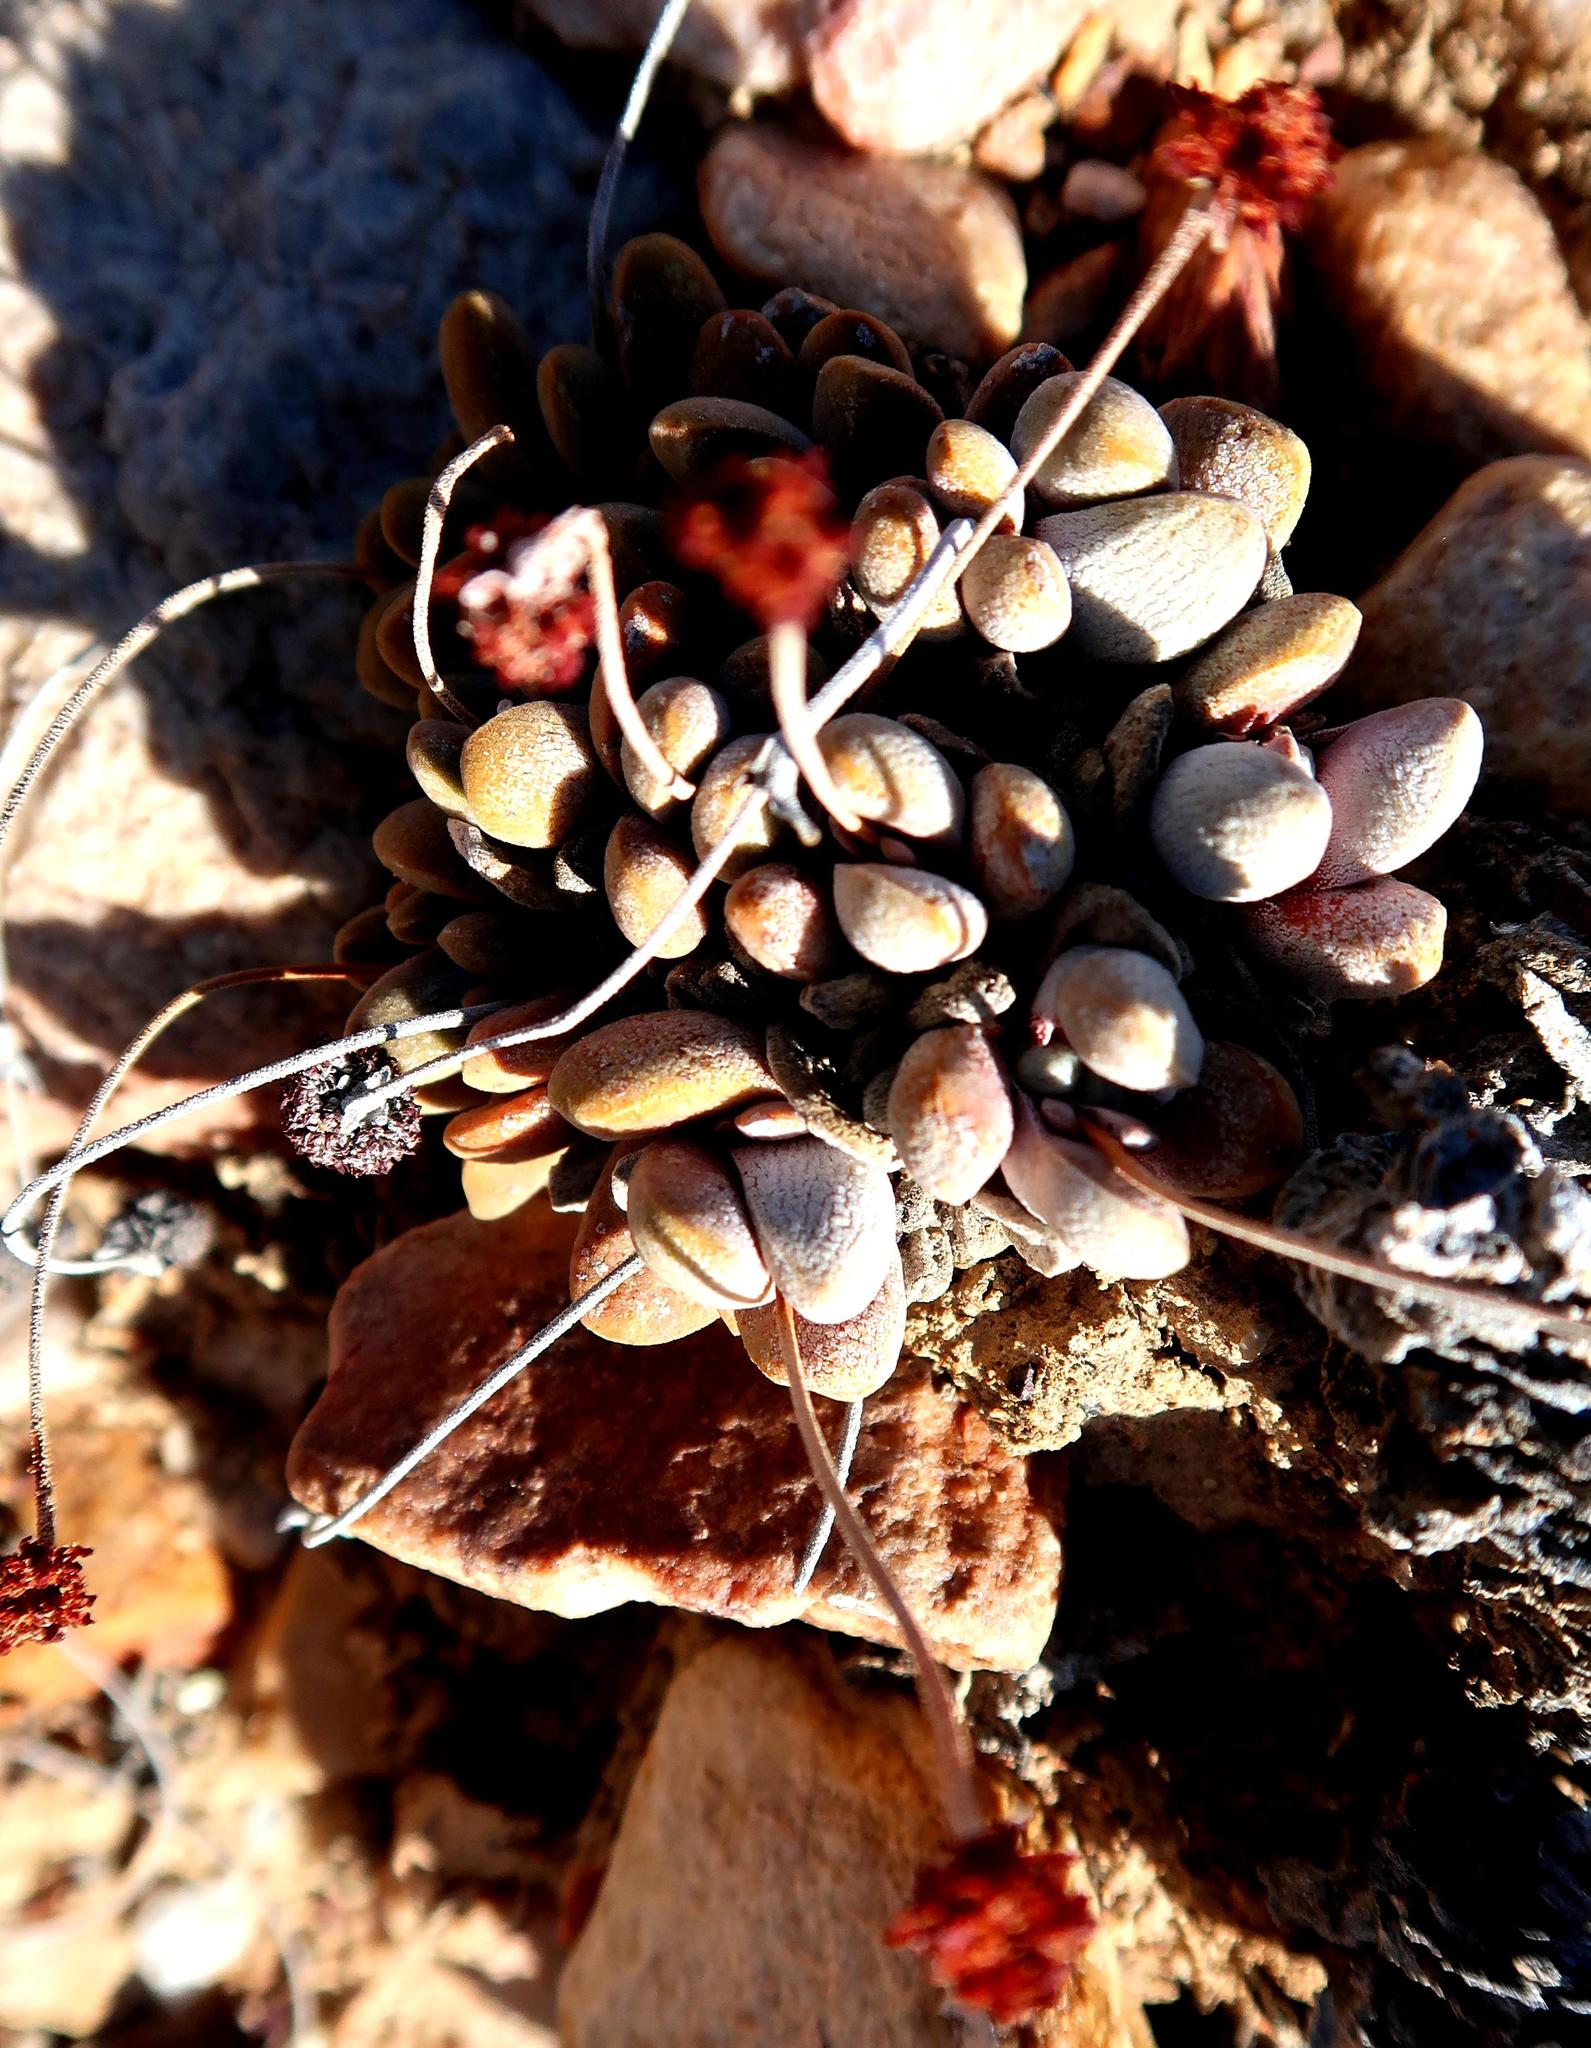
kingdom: Plantae
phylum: Tracheophyta
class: Magnoliopsida
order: Saxifragales
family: Crassulaceae
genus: Crassula
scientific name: Crassula tecta
